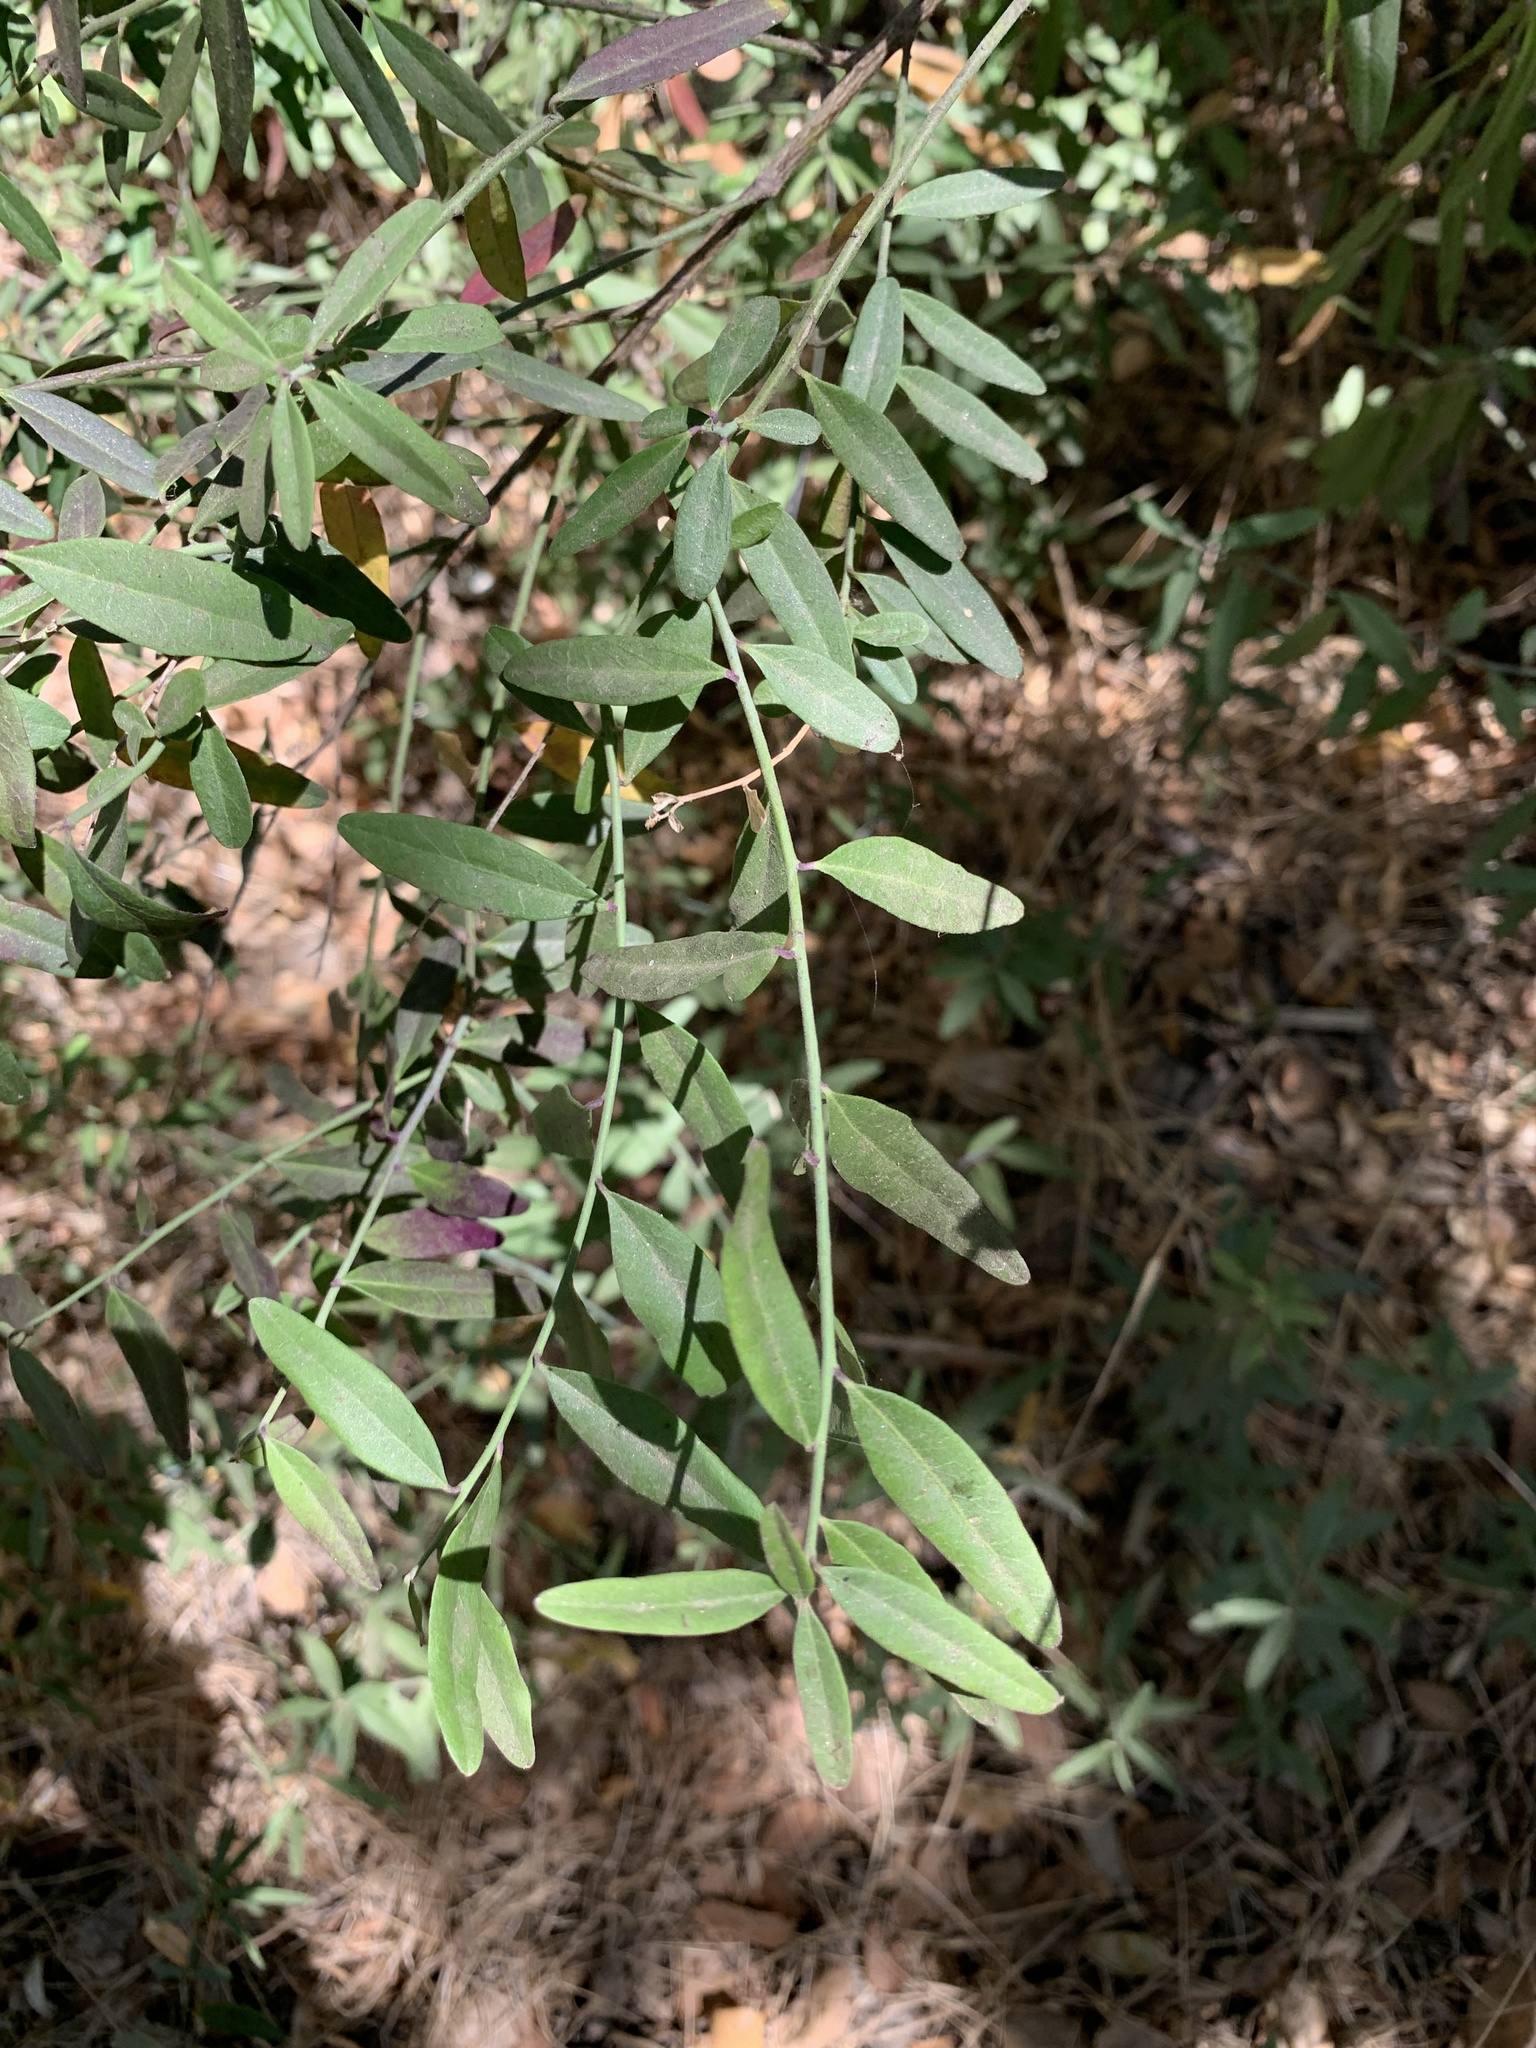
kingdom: Plantae
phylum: Tracheophyta
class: Magnoliopsida
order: Fabales
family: Polygalaceae
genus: Rhinotropis
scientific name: Rhinotropis cornuta
